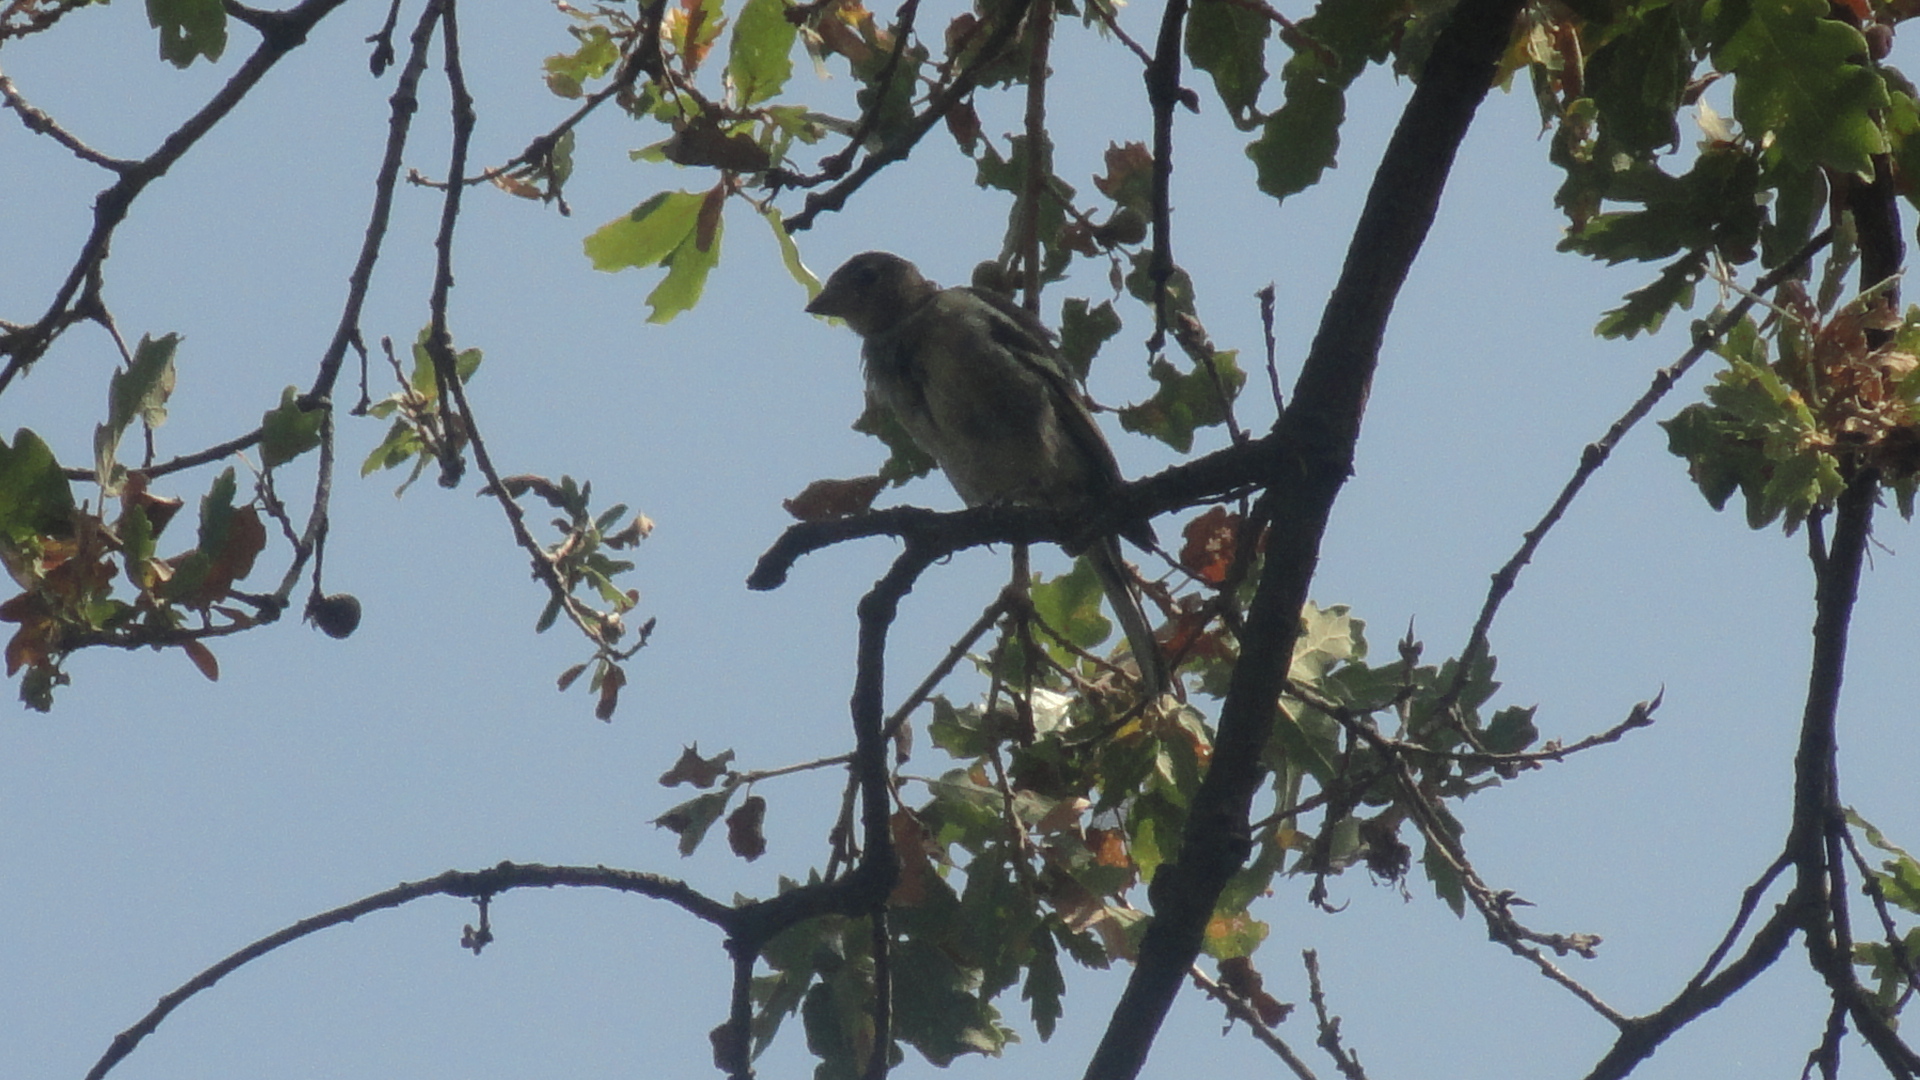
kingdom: Animalia
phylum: Chordata
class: Aves
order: Passeriformes
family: Fringillidae
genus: Fringilla
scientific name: Fringilla coelebs
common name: Common chaffinch
